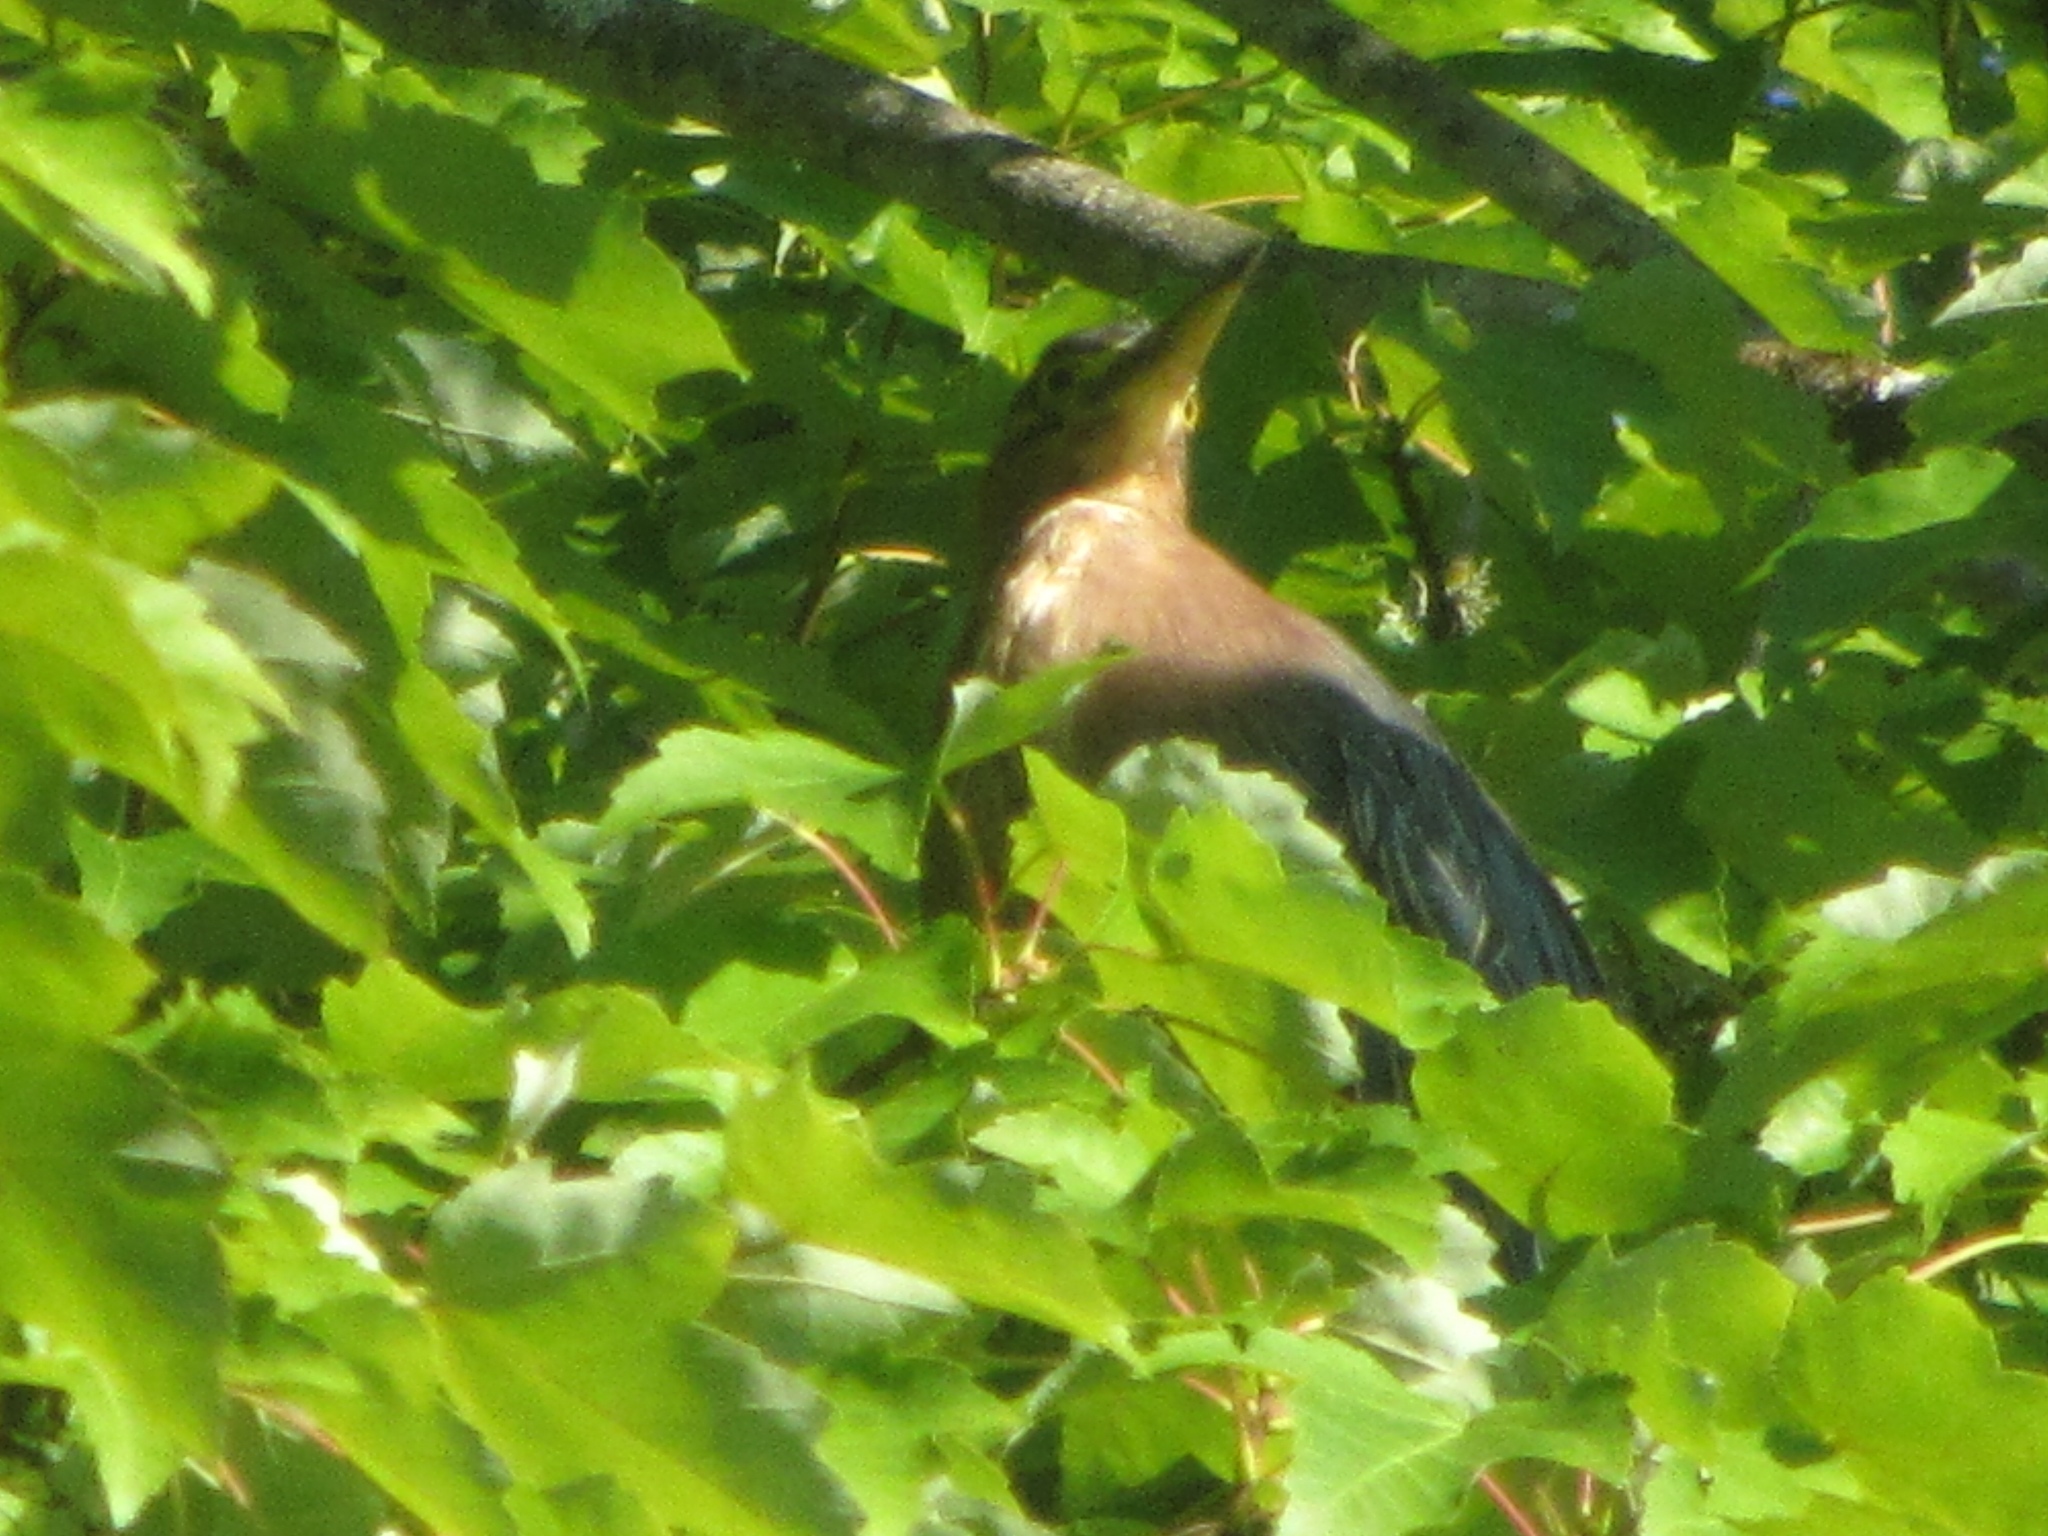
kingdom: Animalia
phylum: Chordata
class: Aves
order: Pelecaniformes
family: Ardeidae
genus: Butorides
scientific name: Butorides virescens
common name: Green heron
